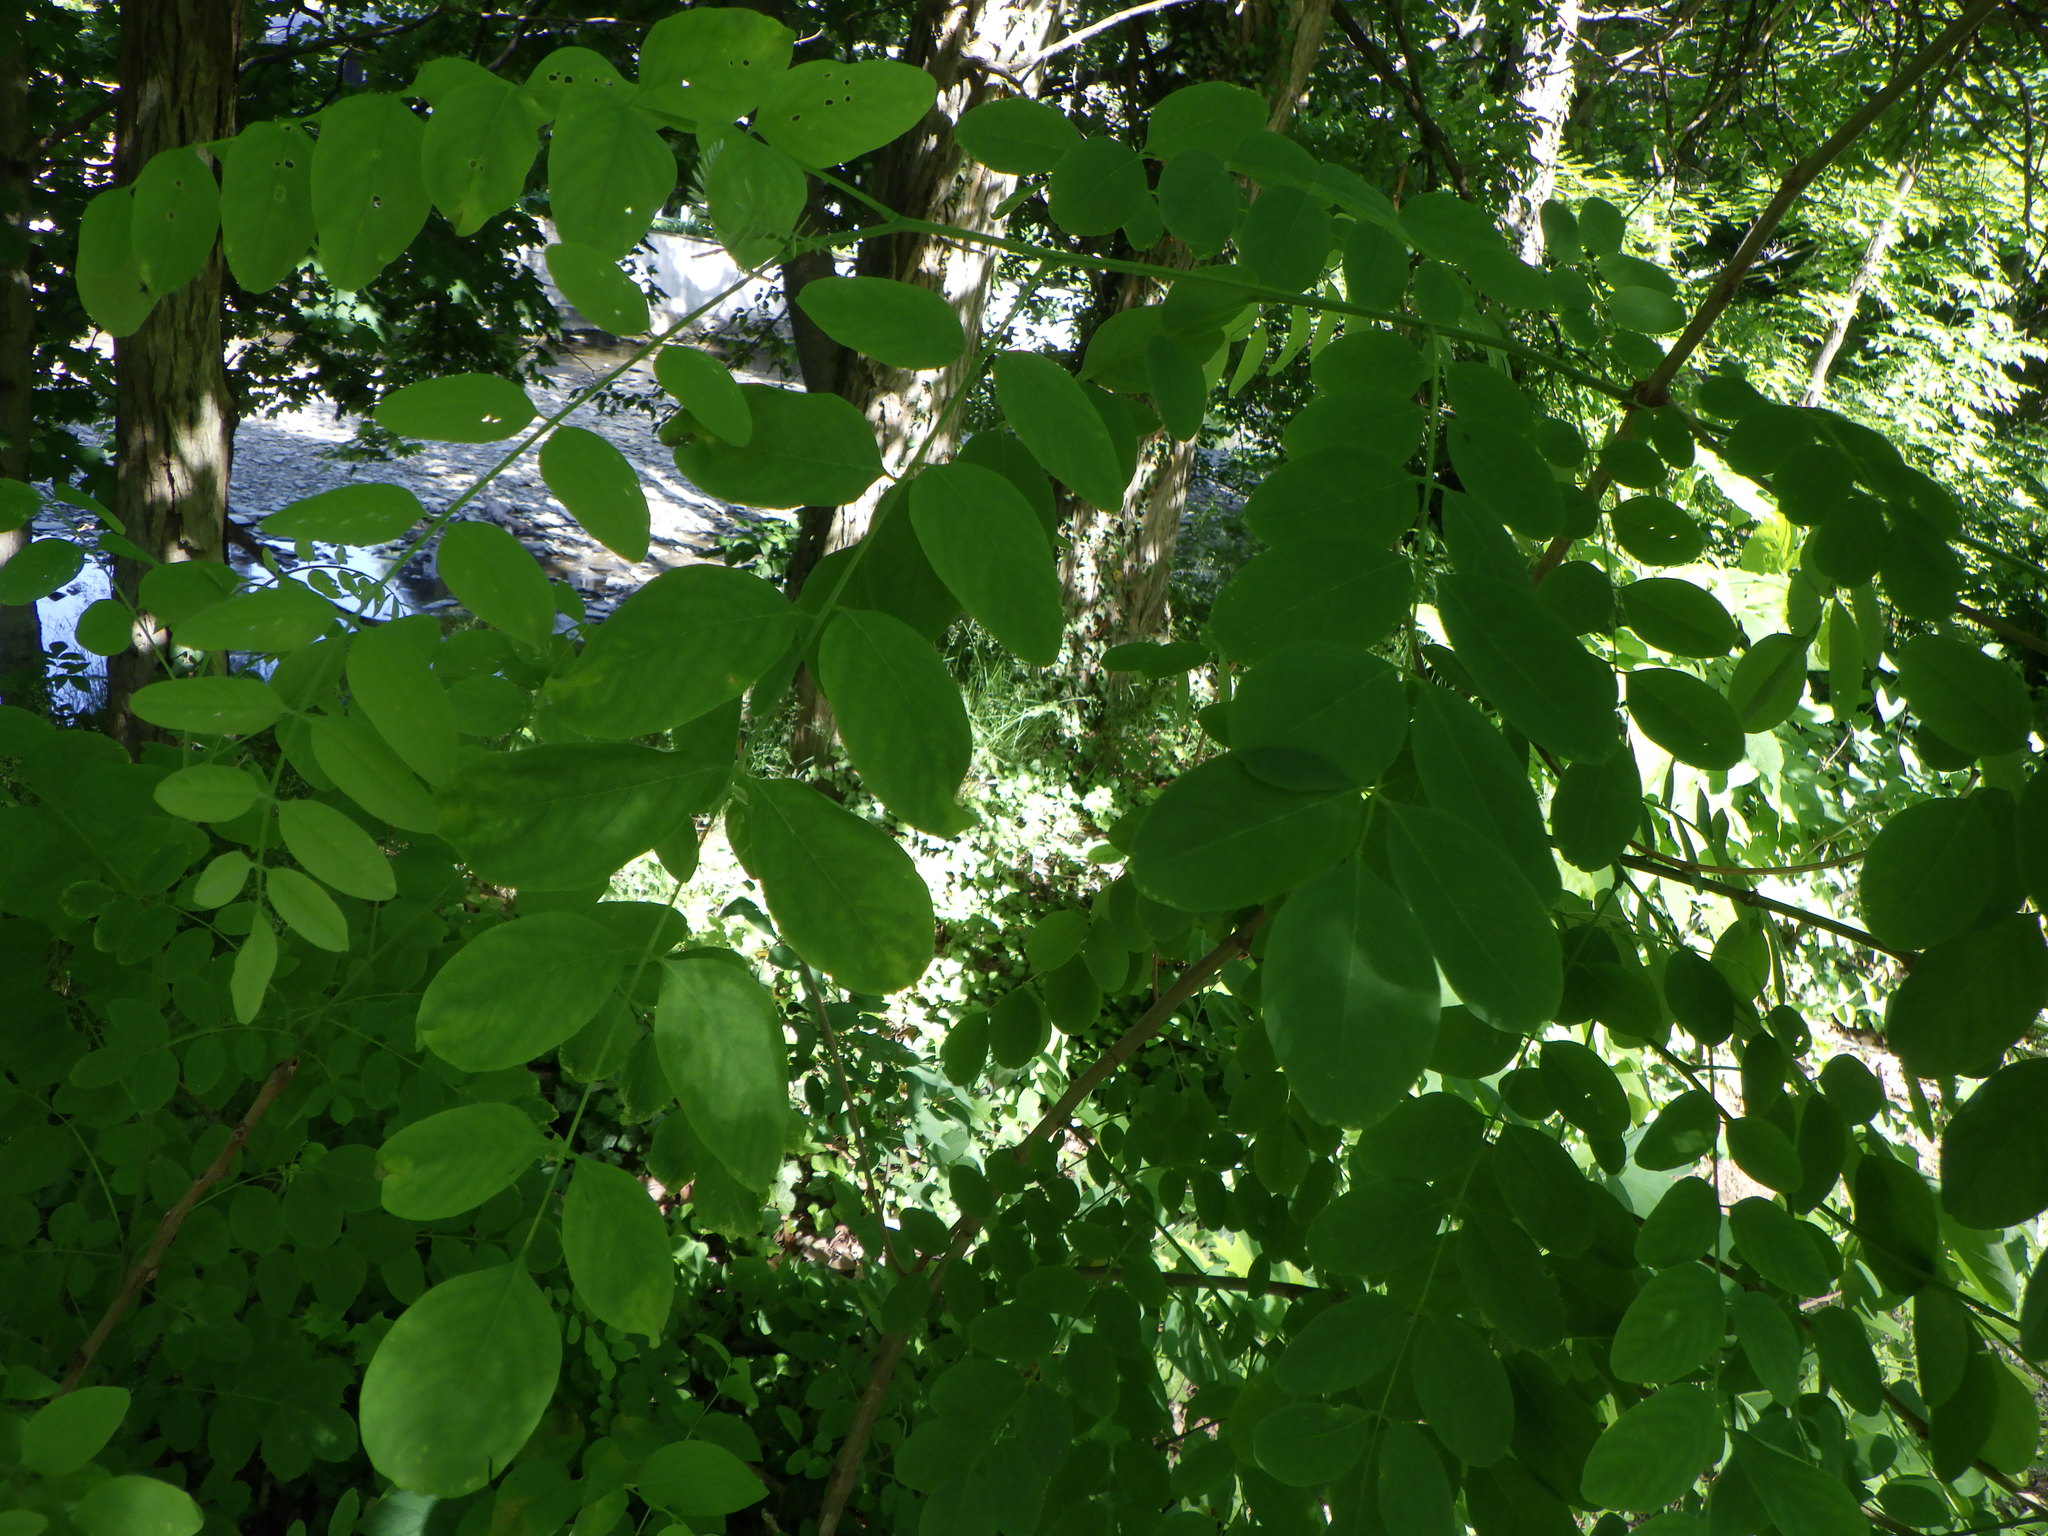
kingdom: Plantae
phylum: Tracheophyta
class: Magnoliopsida
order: Fabales
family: Fabaceae
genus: Robinia
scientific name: Robinia pseudoacacia
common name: Black locust
